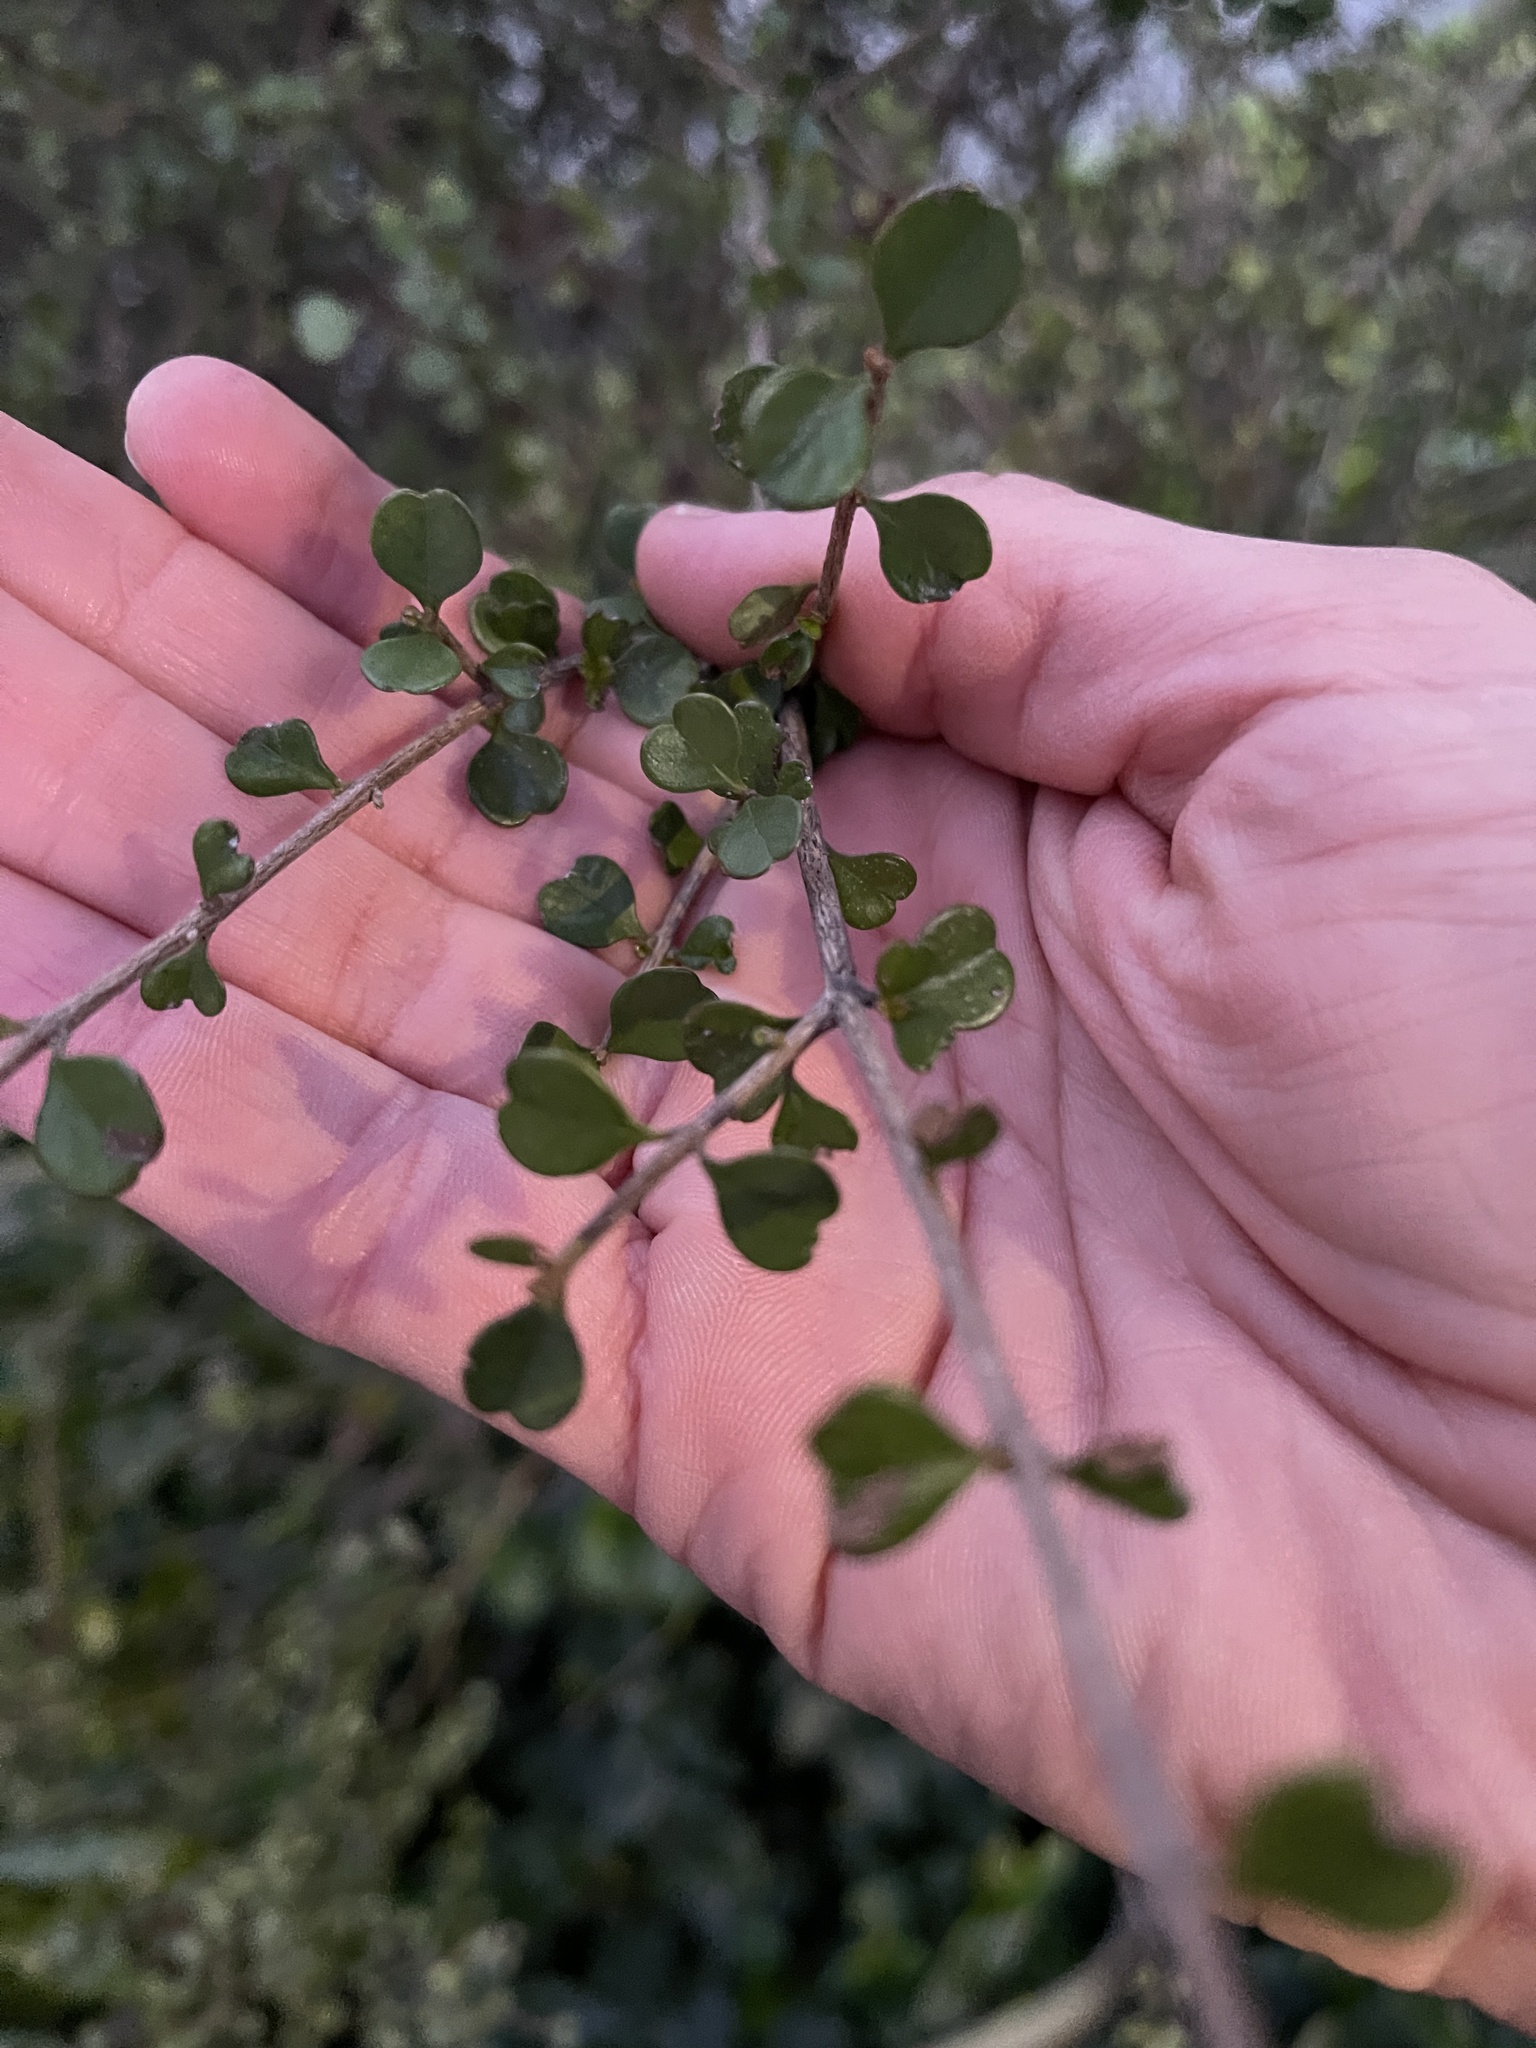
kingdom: Plantae
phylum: Tracheophyta
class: Magnoliopsida
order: Myrtales
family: Myrtaceae
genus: Lophomyrtus
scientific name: Lophomyrtus obcordata
